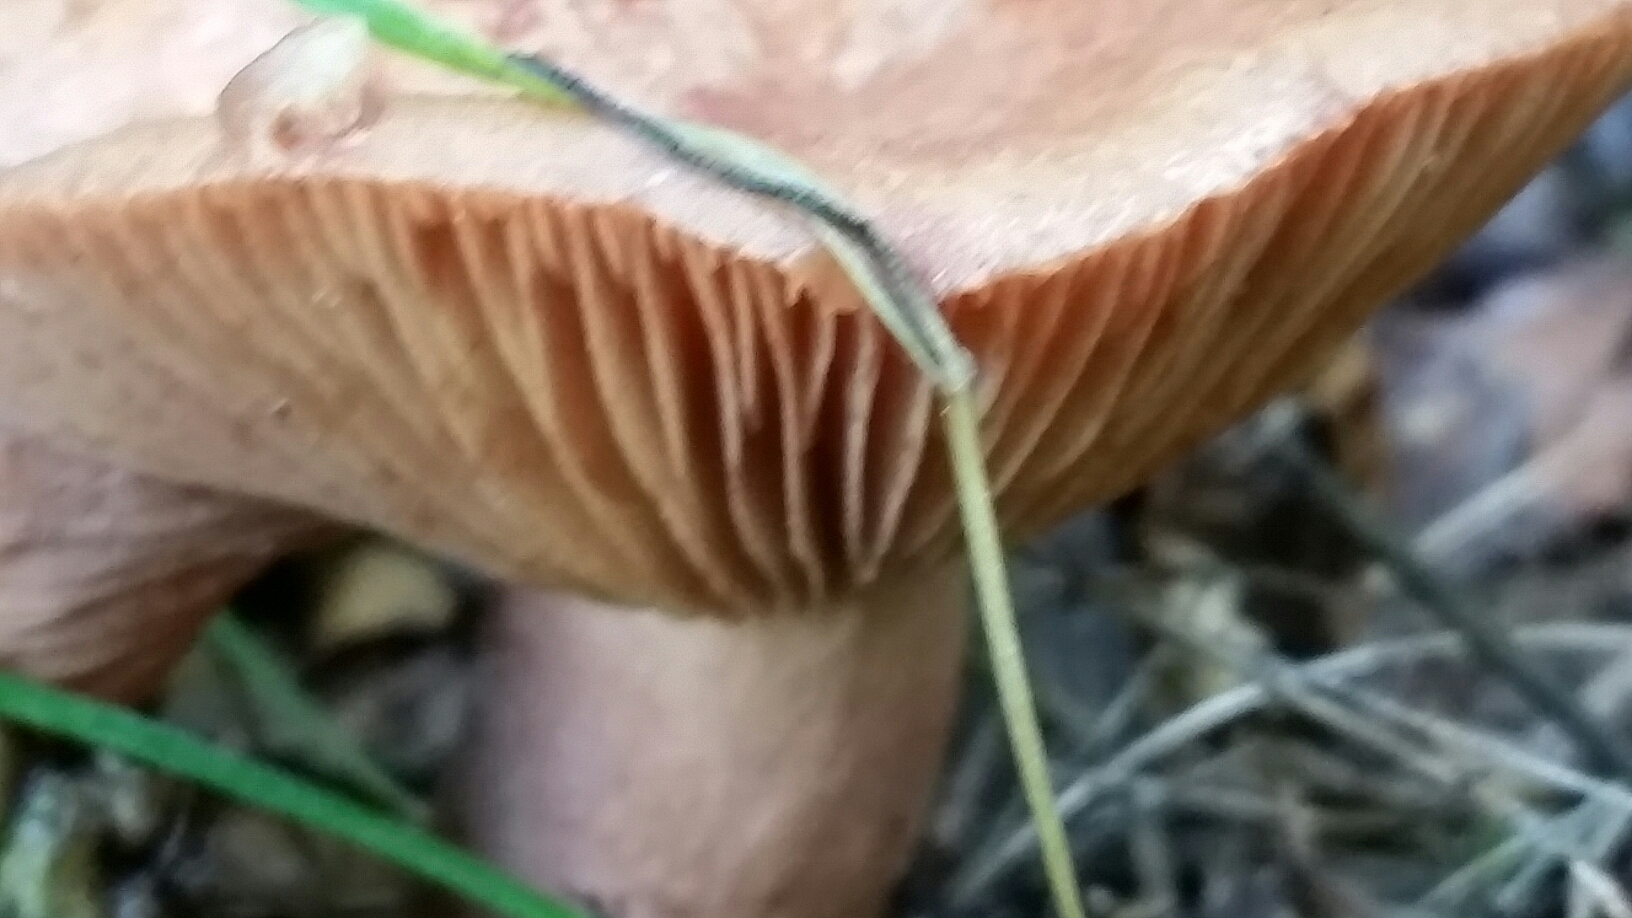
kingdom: Fungi
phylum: Basidiomycota
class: Agaricomycetes
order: Russulales
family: Russulaceae
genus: Lactarius
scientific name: Lactarius xanthogalactus
